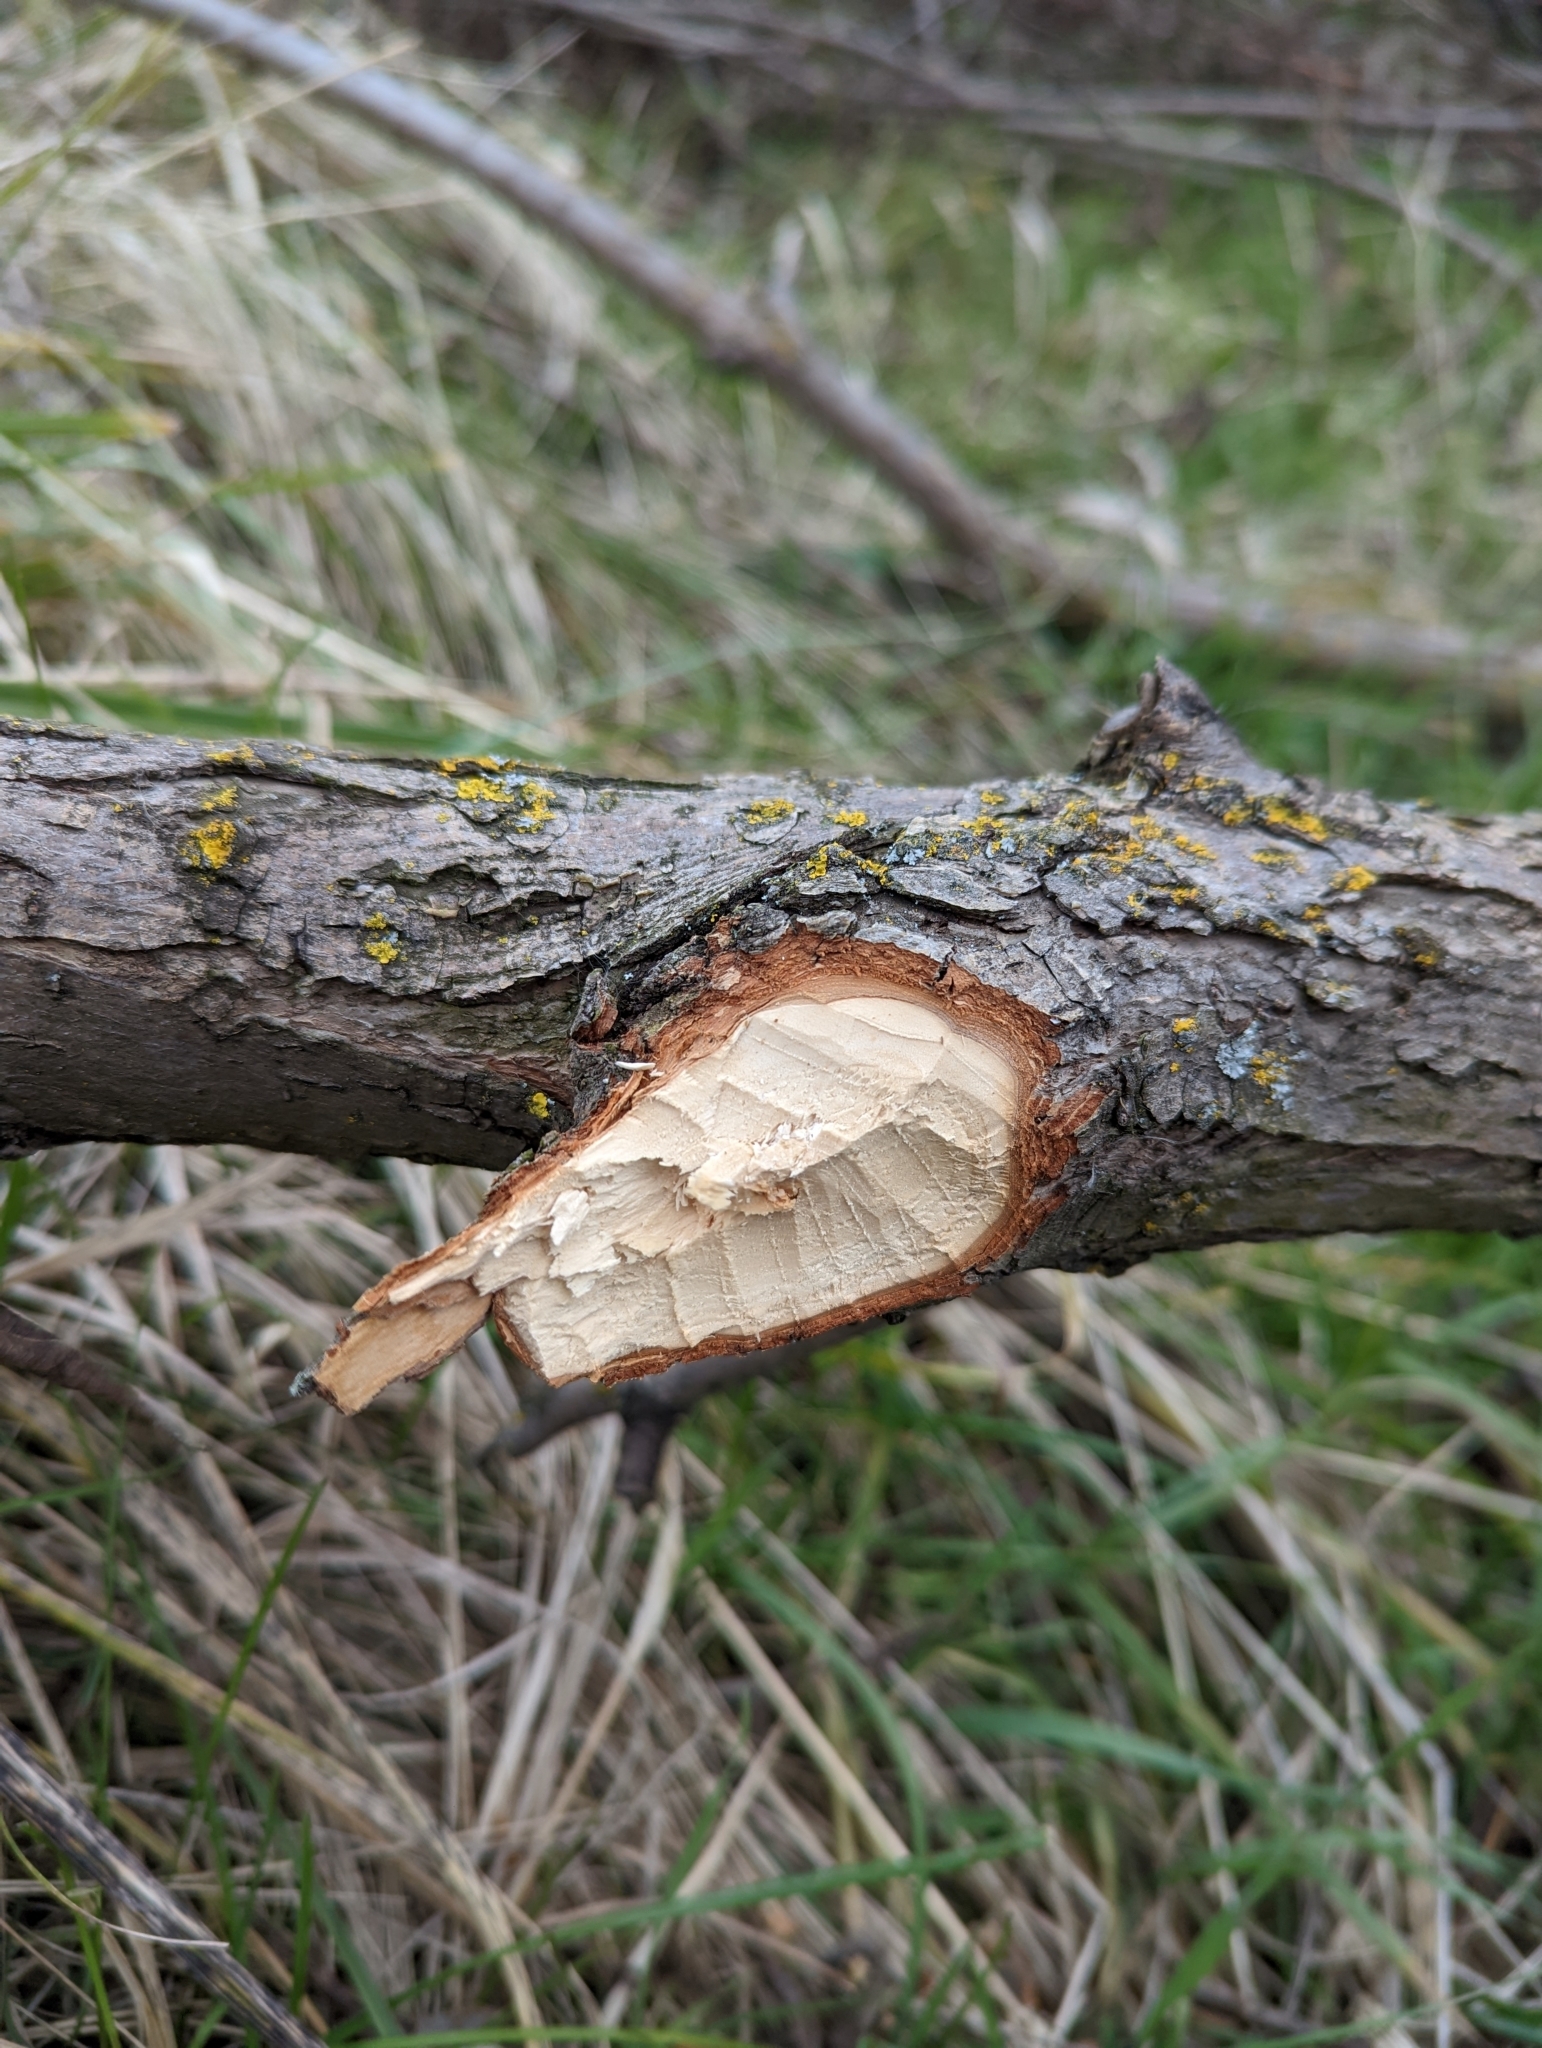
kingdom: Animalia
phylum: Chordata
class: Mammalia
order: Rodentia
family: Castoridae
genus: Castor
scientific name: Castor fiber
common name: Eurasian beaver
